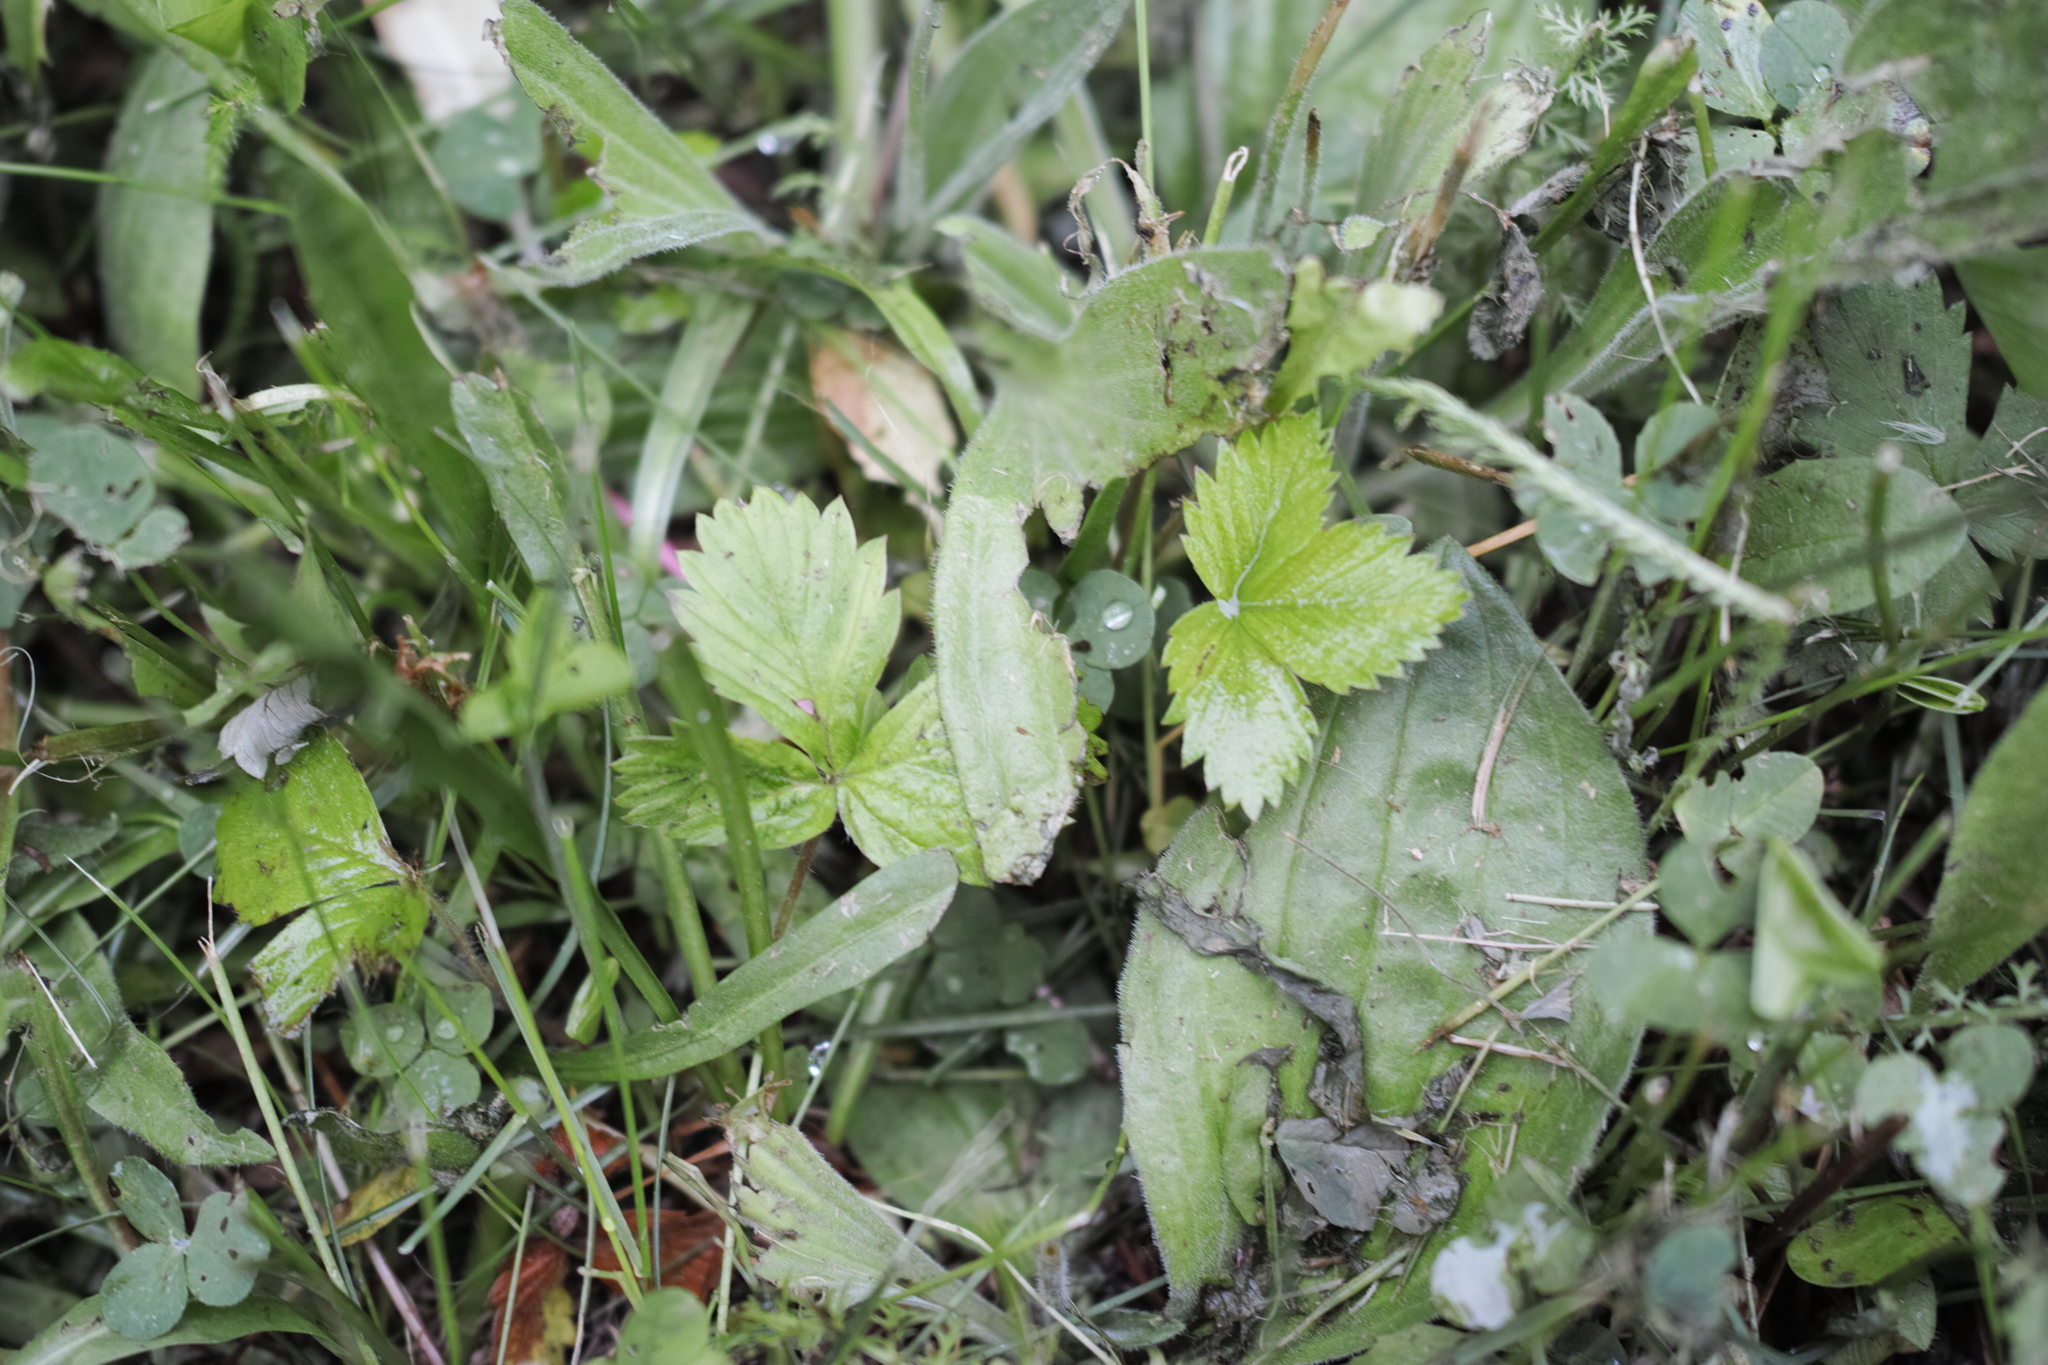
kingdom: Plantae
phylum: Tracheophyta
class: Magnoliopsida
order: Rosales
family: Rosaceae
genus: Fragaria
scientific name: Fragaria vesca
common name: Wild strawberry
